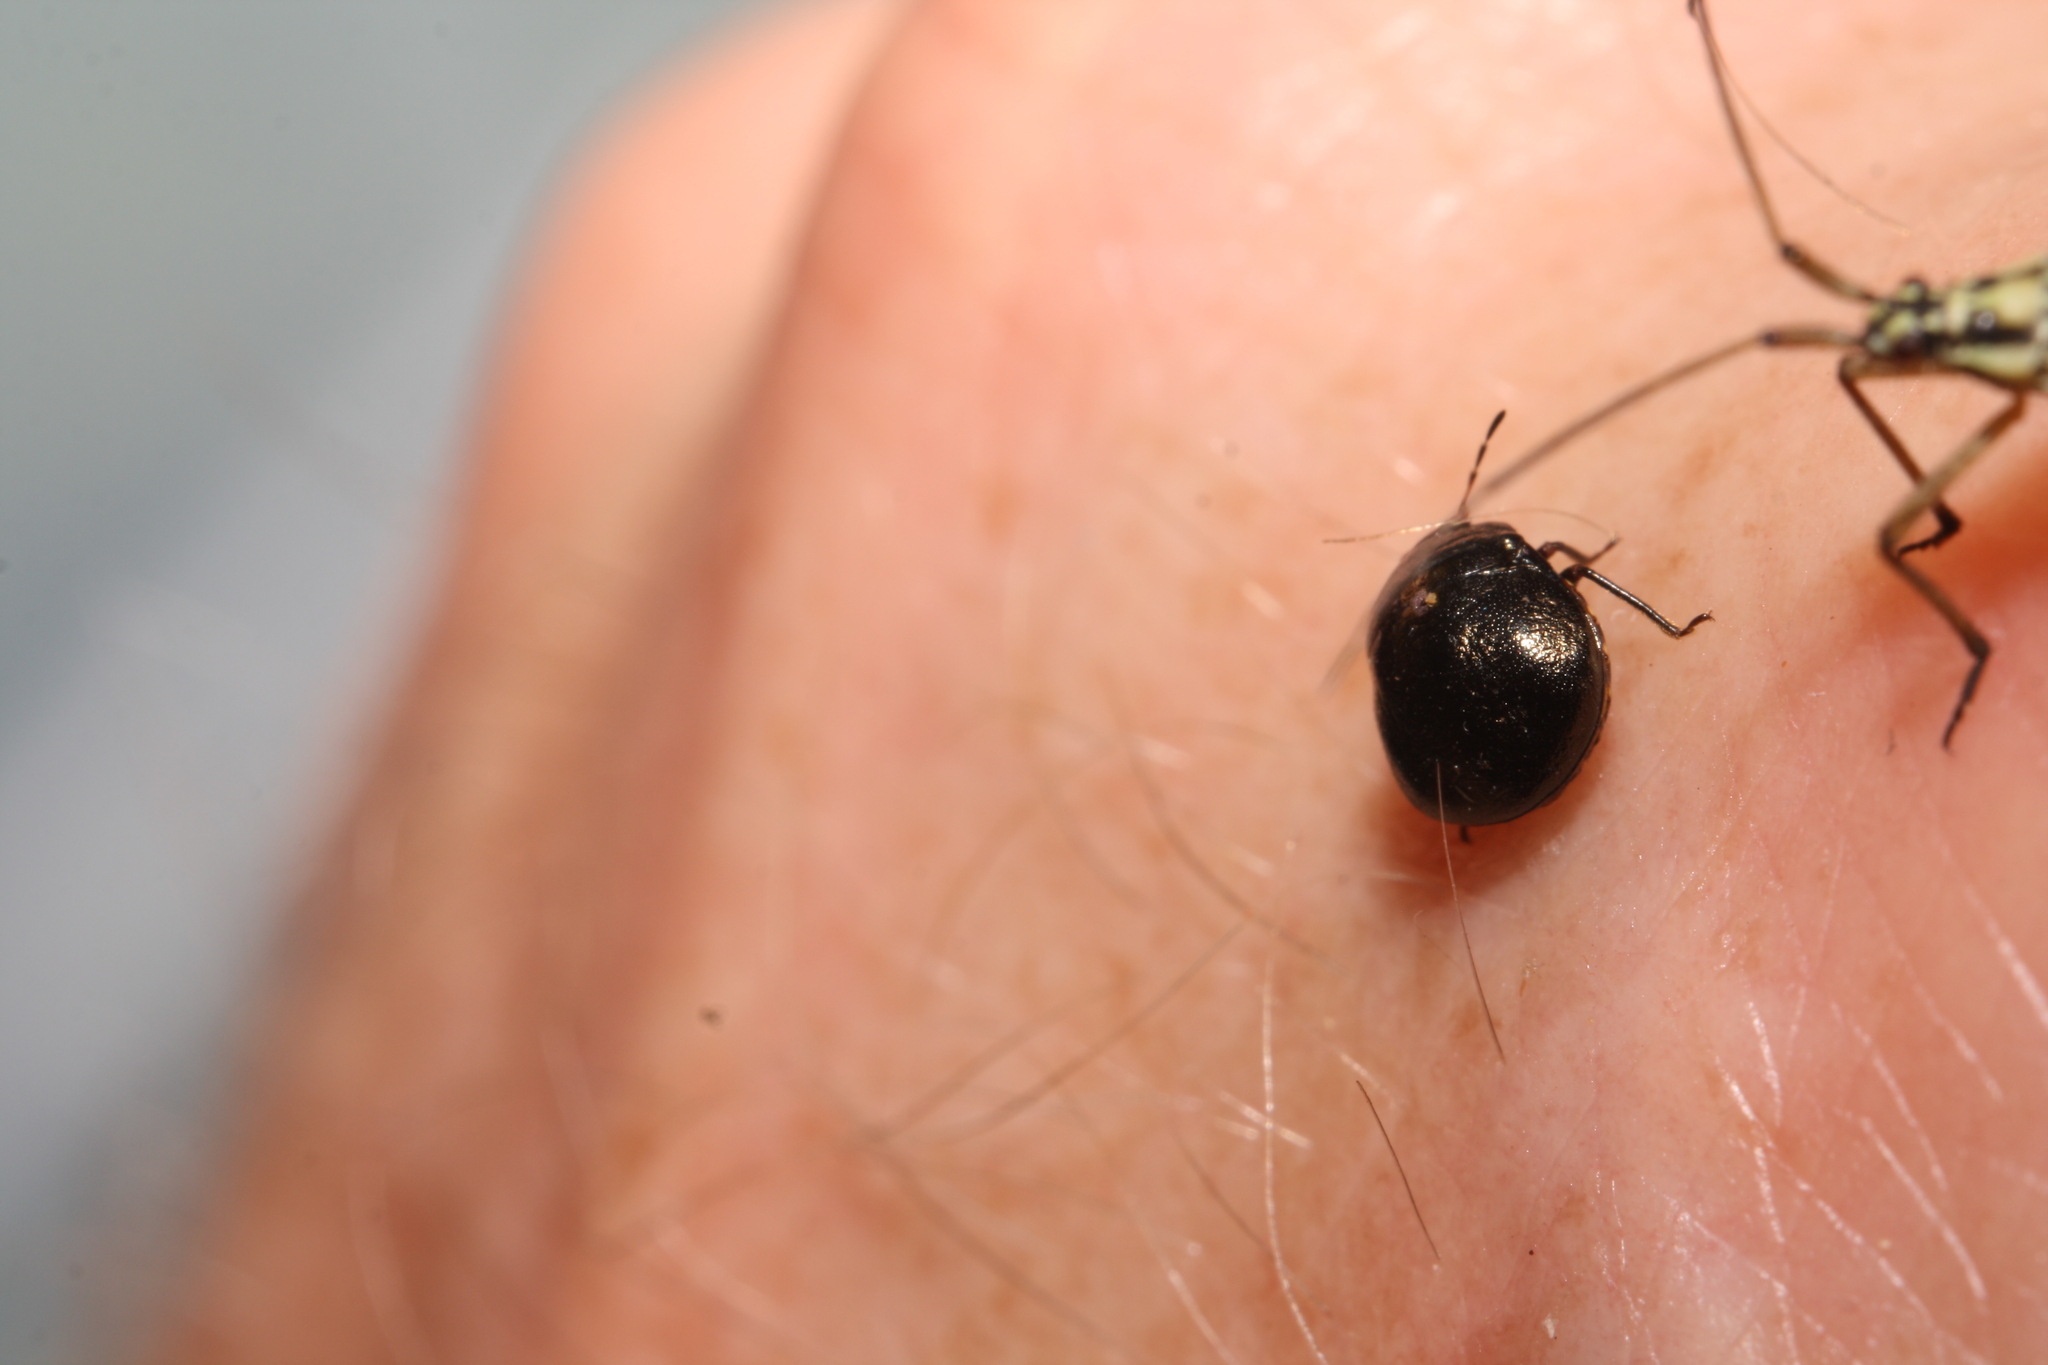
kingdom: Animalia
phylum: Arthropoda
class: Insecta
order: Hemiptera
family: Plataspidae
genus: Coptosoma
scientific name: Coptosoma scutellatum
